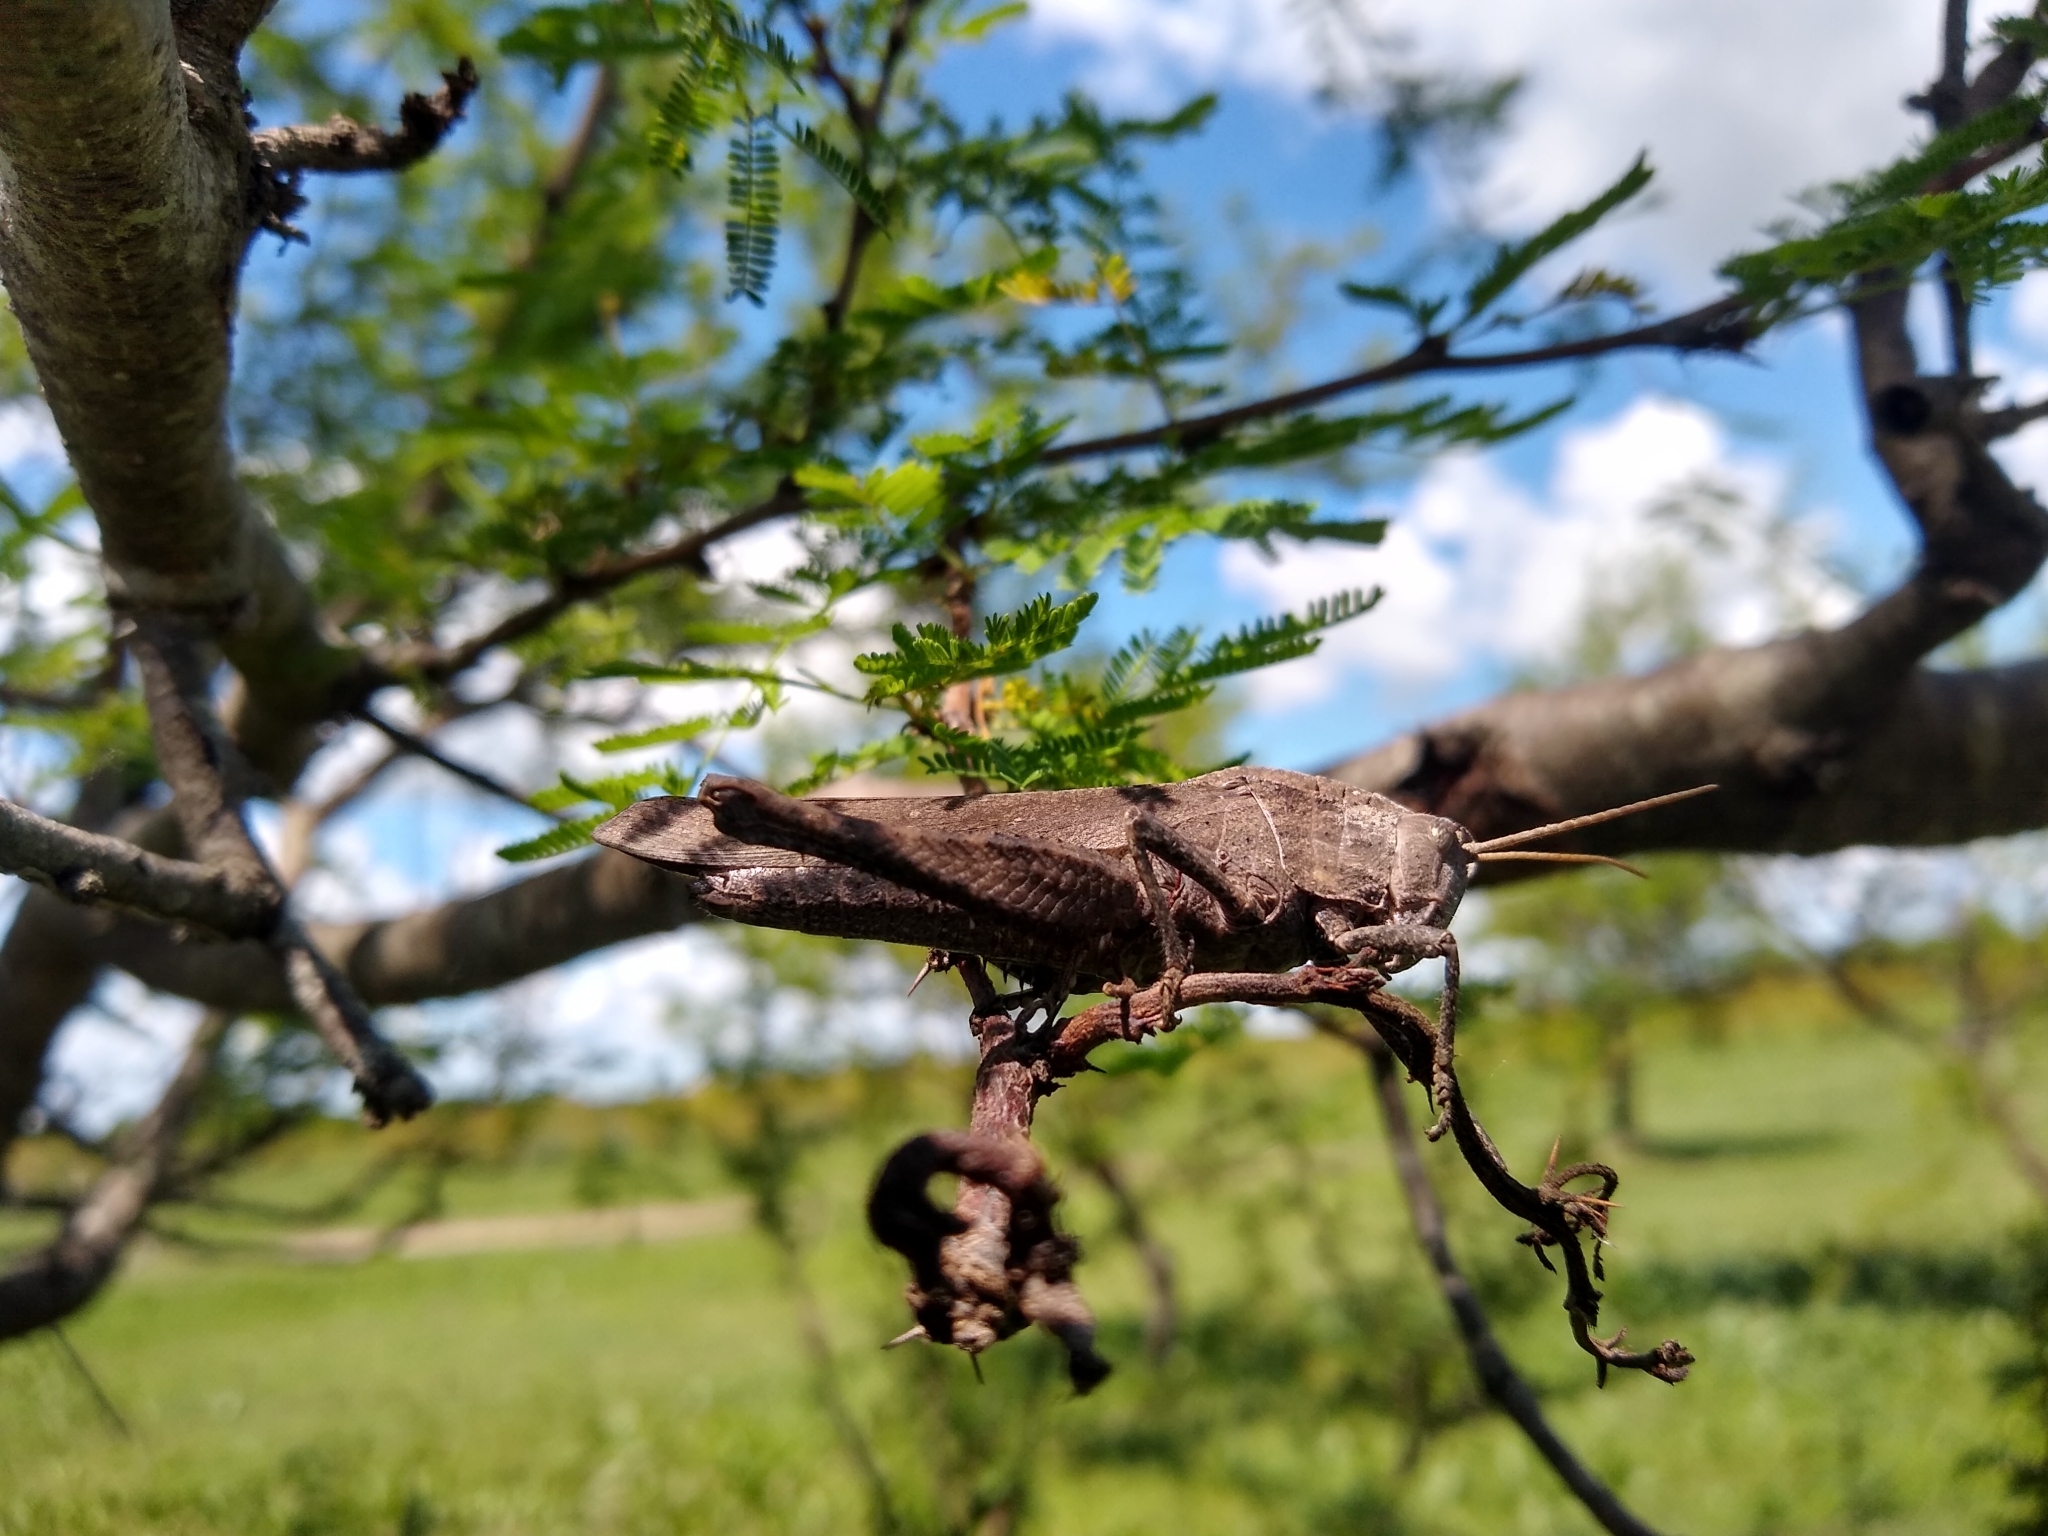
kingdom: Animalia
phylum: Arthropoda
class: Insecta
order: Orthoptera
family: Romaleidae
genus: Xyleus
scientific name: Xyleus discoideus
